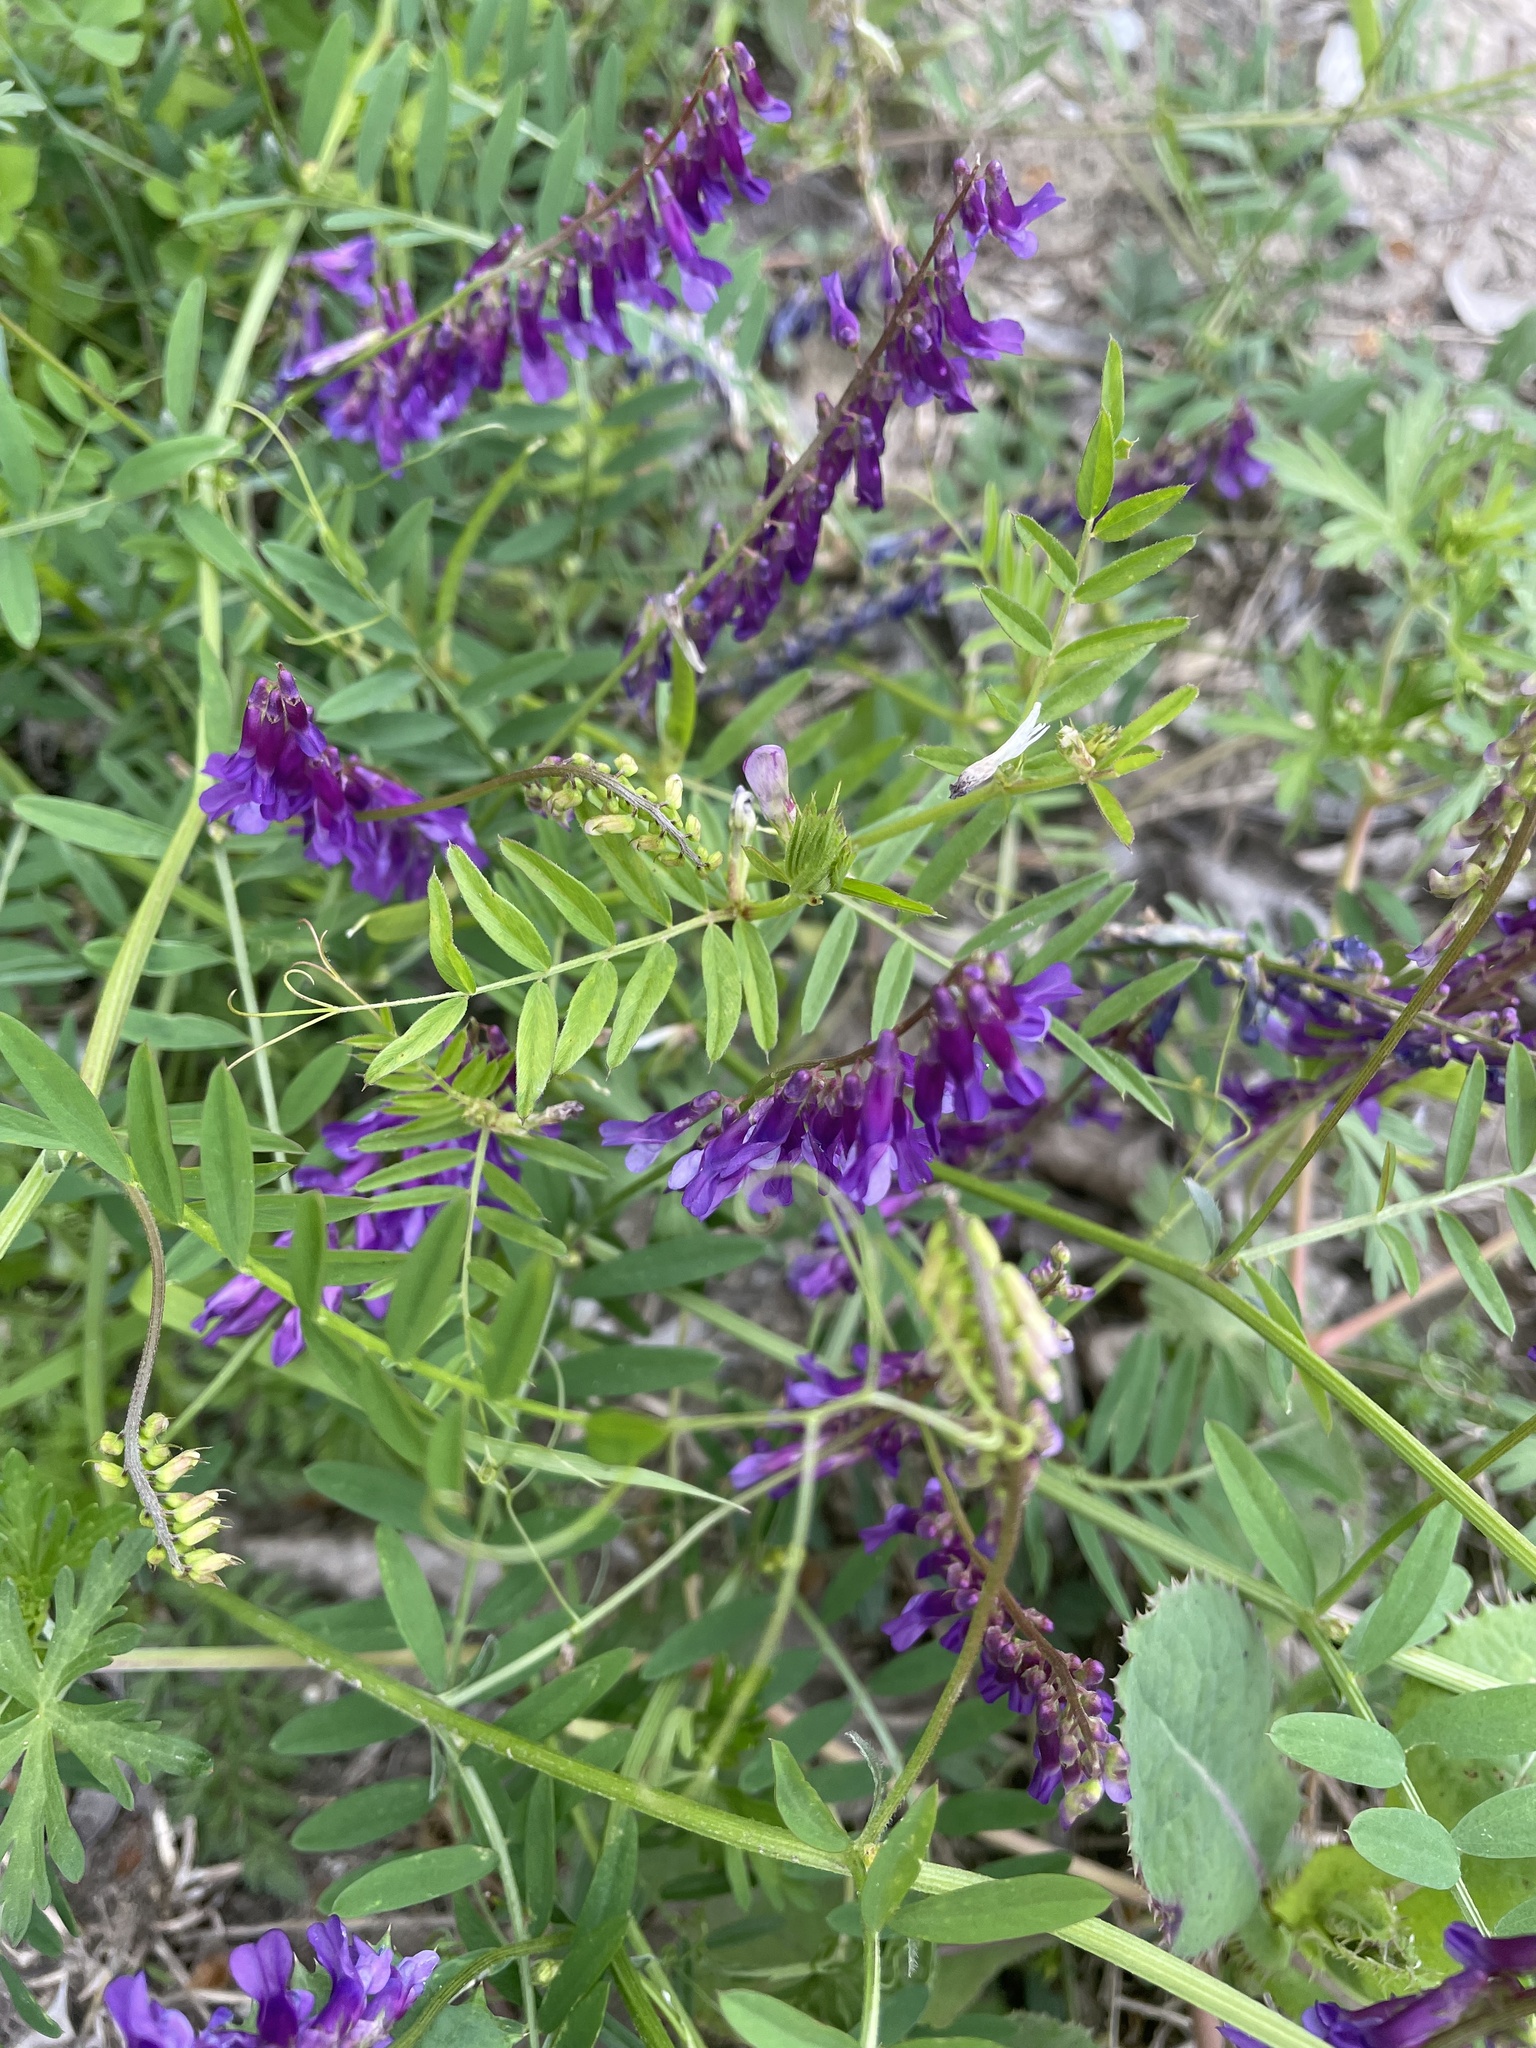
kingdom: Plantae
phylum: Tracheophyta
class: Magnoliopsida
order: Fabales
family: Fabaceae
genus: Vicia
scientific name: Vicia villosa
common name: Fodder vetch
